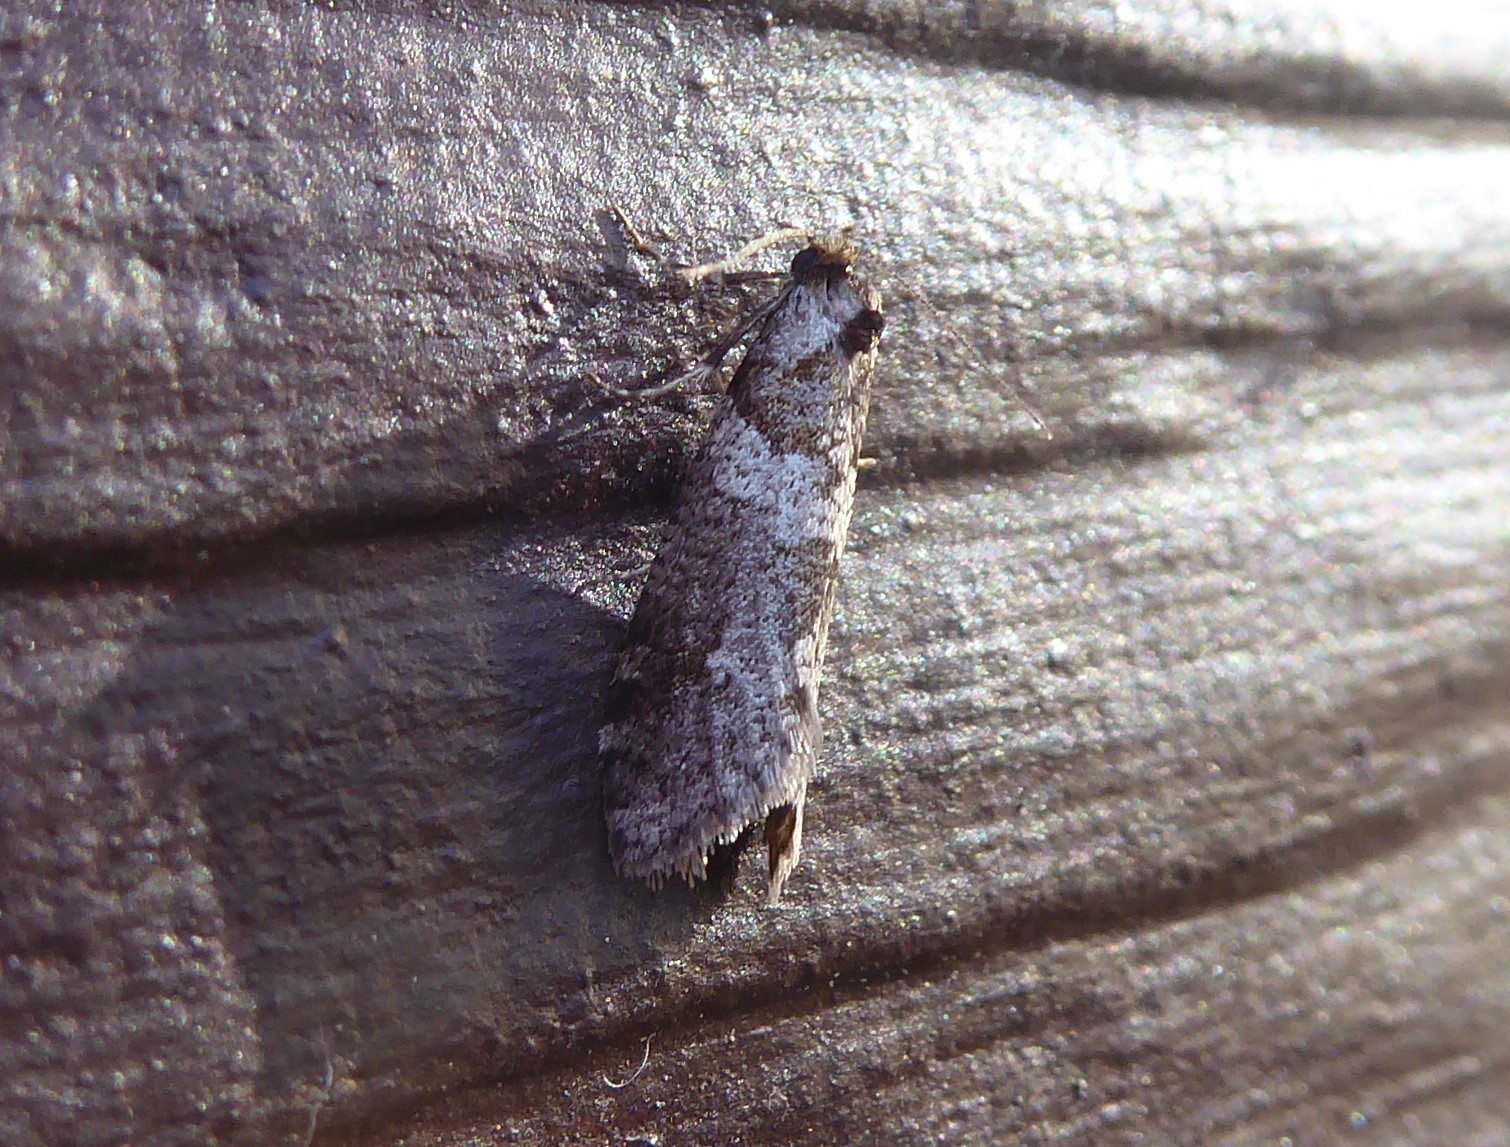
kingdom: Animalia
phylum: Arthropoda
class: Insecta
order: Lepidoptera
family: Psychidae
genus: Lepidoscia
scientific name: Lepidoscia heliochares
